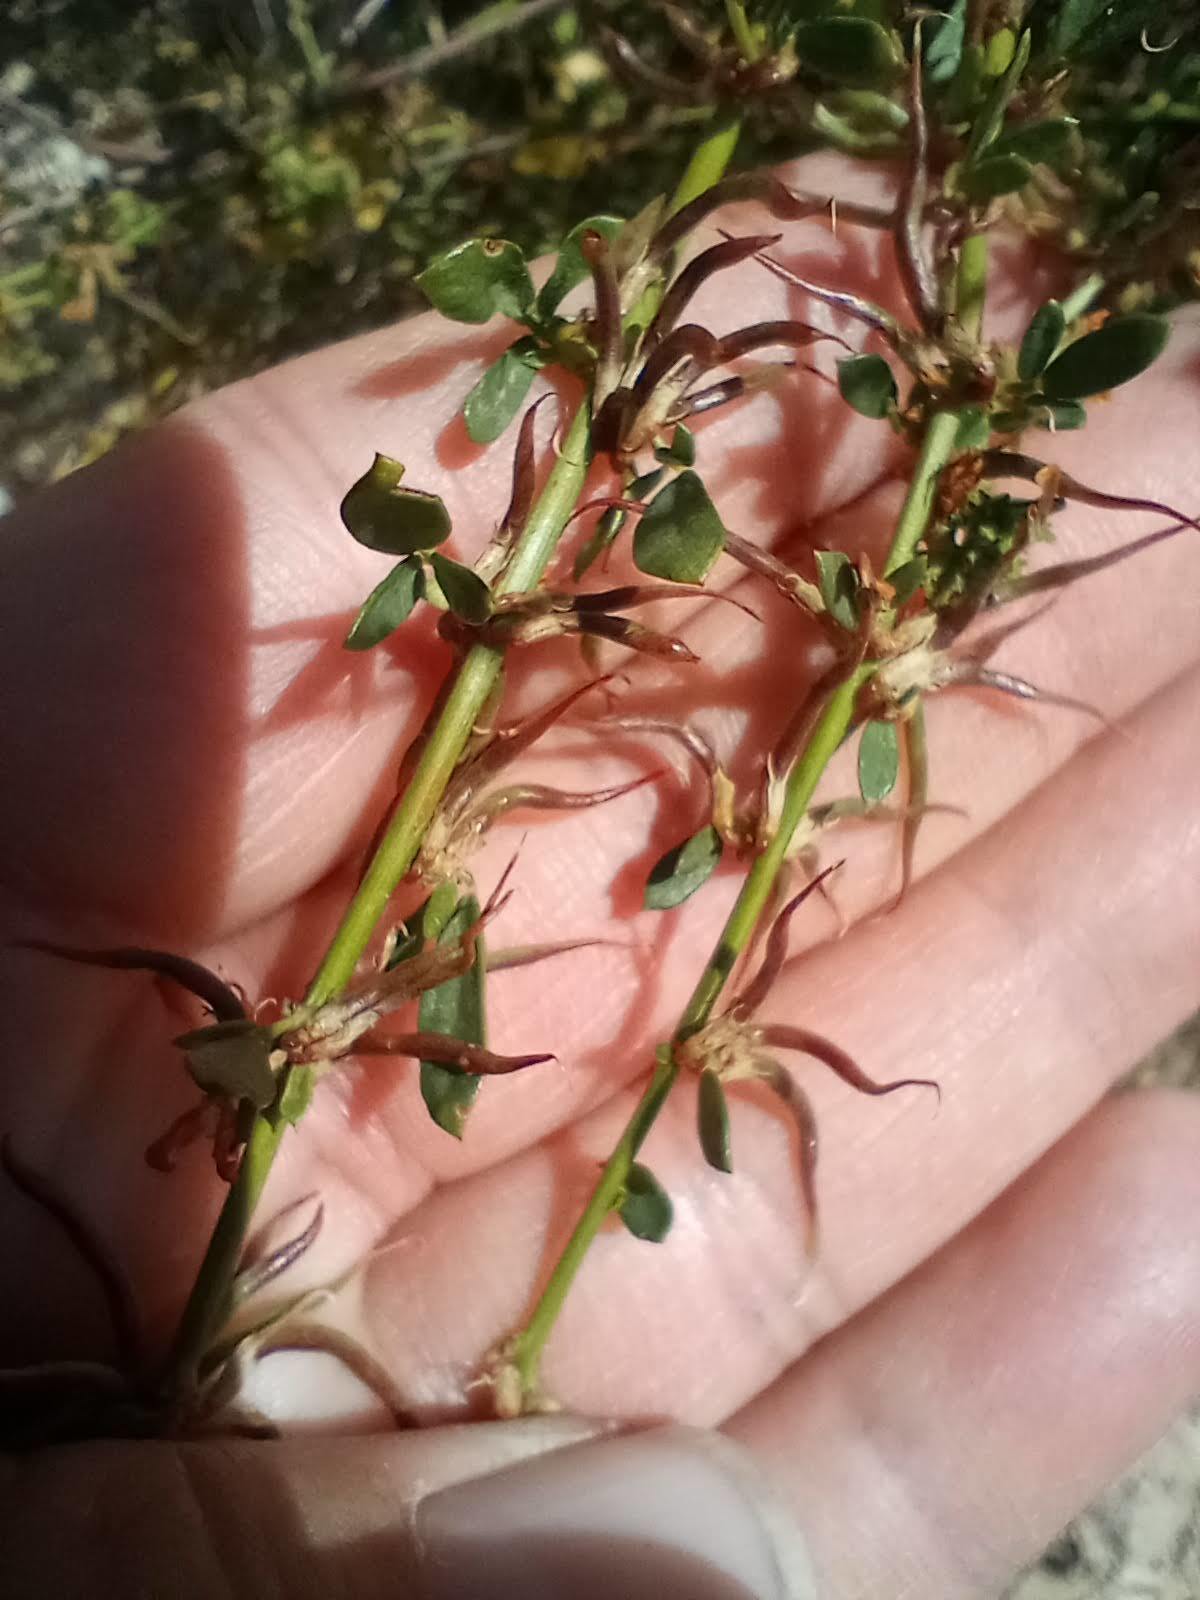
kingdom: Plantae
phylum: Tracheophyta
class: Magnoliopsida
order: Fabales
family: Fabaceae
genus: Acmispon
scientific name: Acmispon glaber
